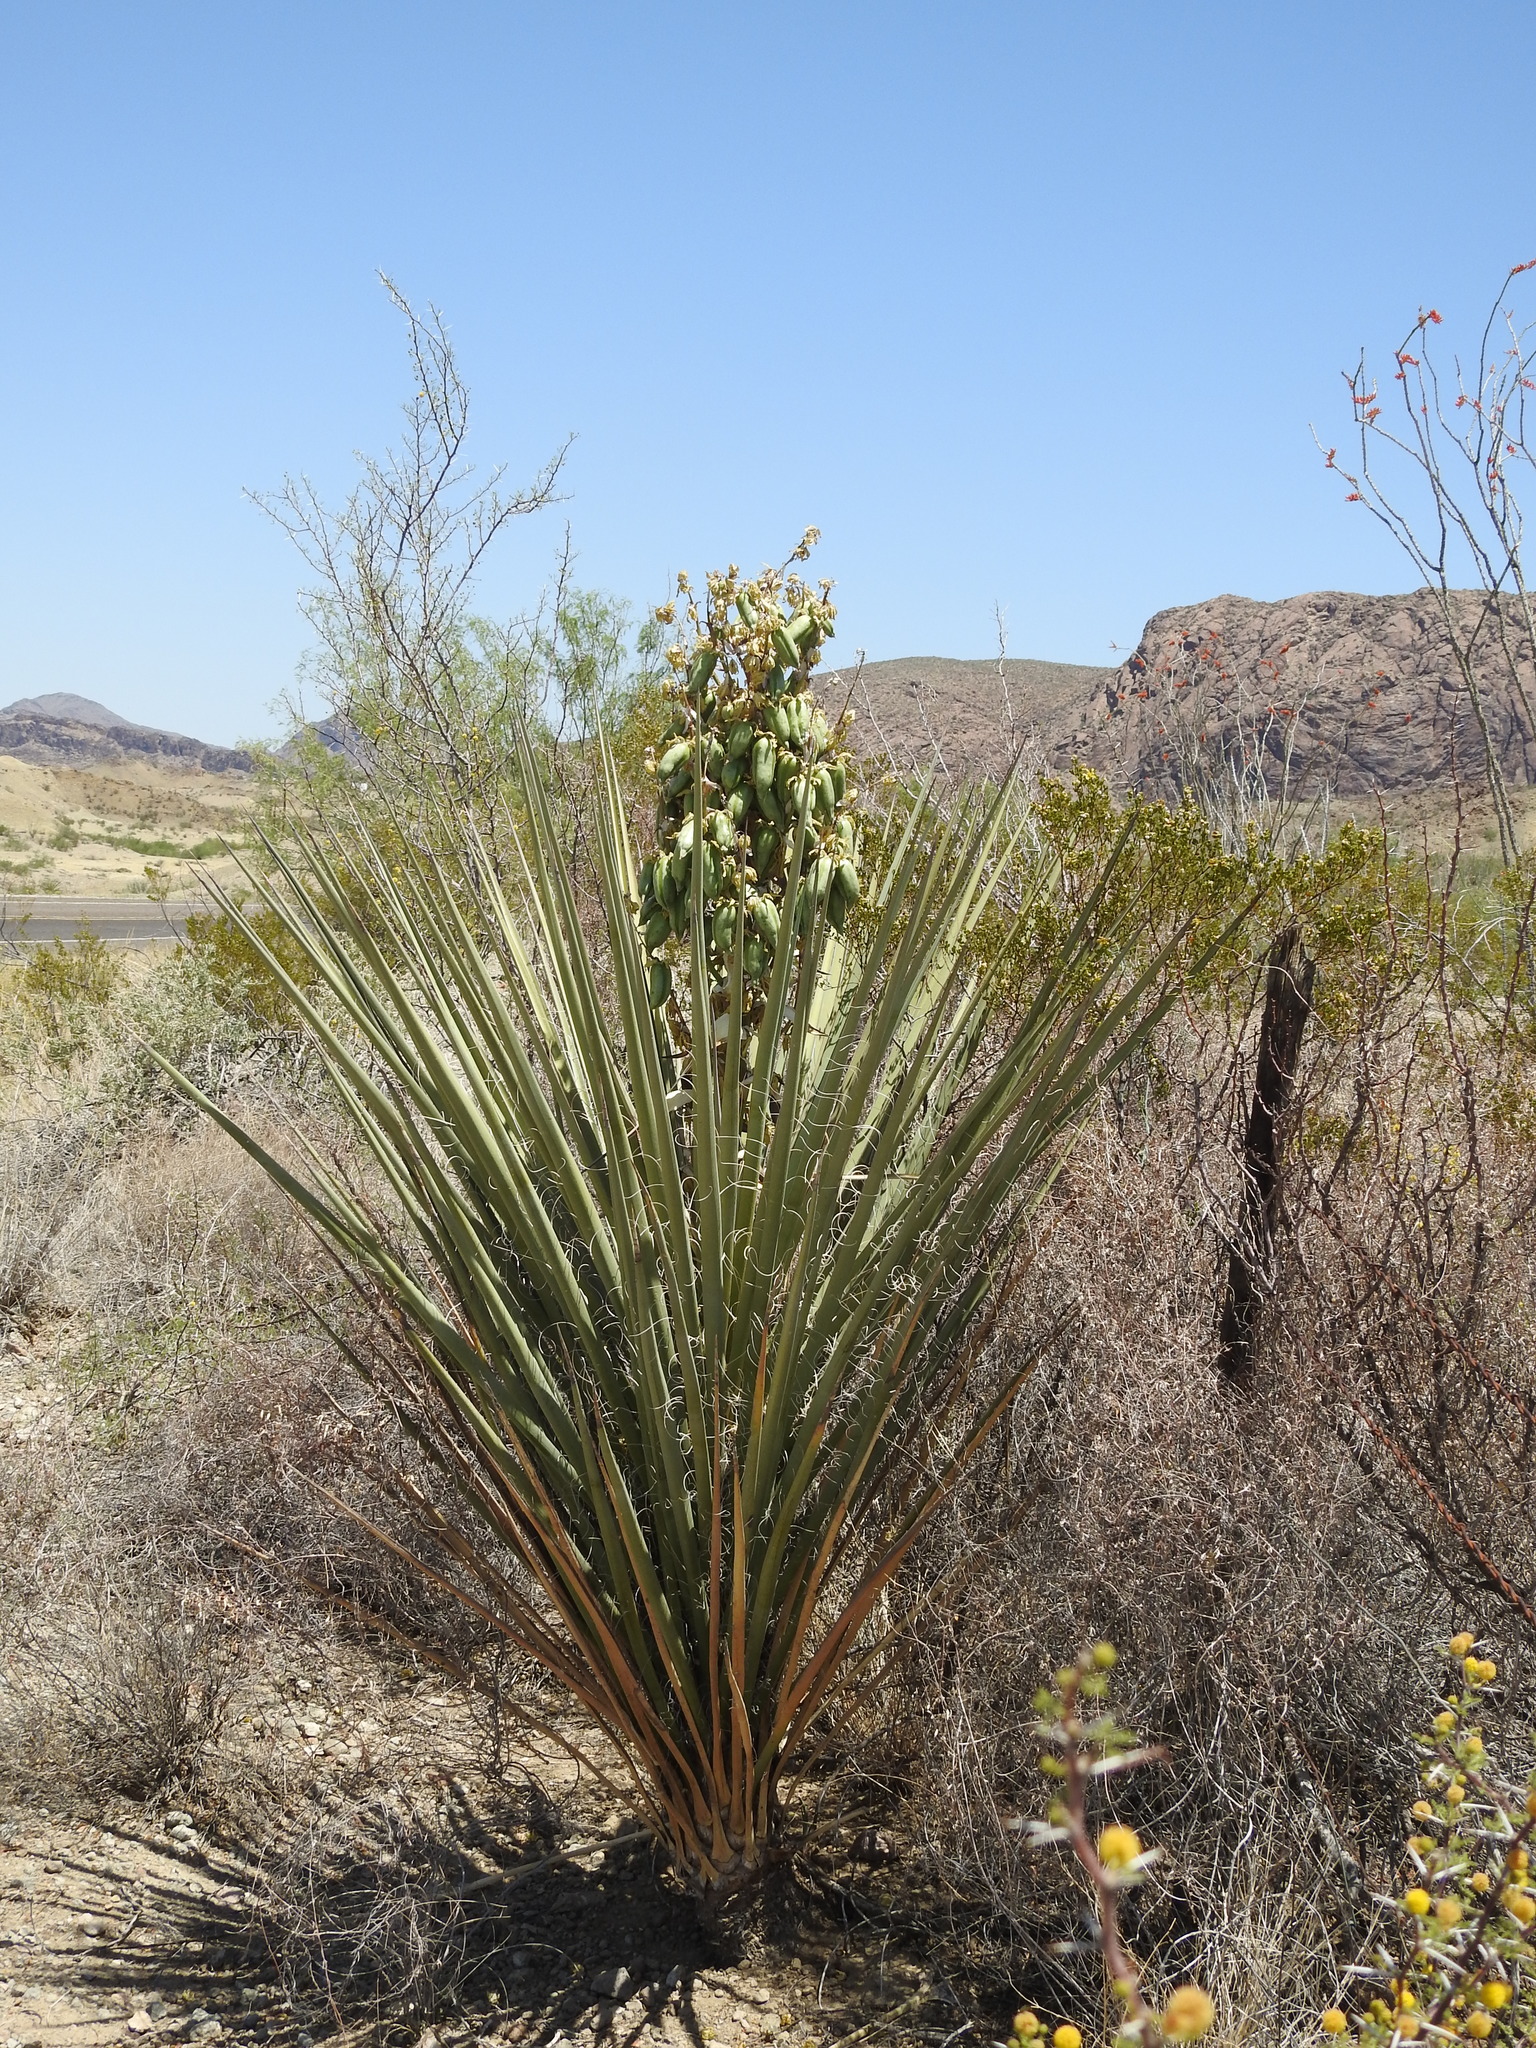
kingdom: Plantae
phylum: Tracheophyta
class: Liliopsida
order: Asparagales
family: Asparagaceae
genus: Yucca
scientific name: Yucca treculiana
